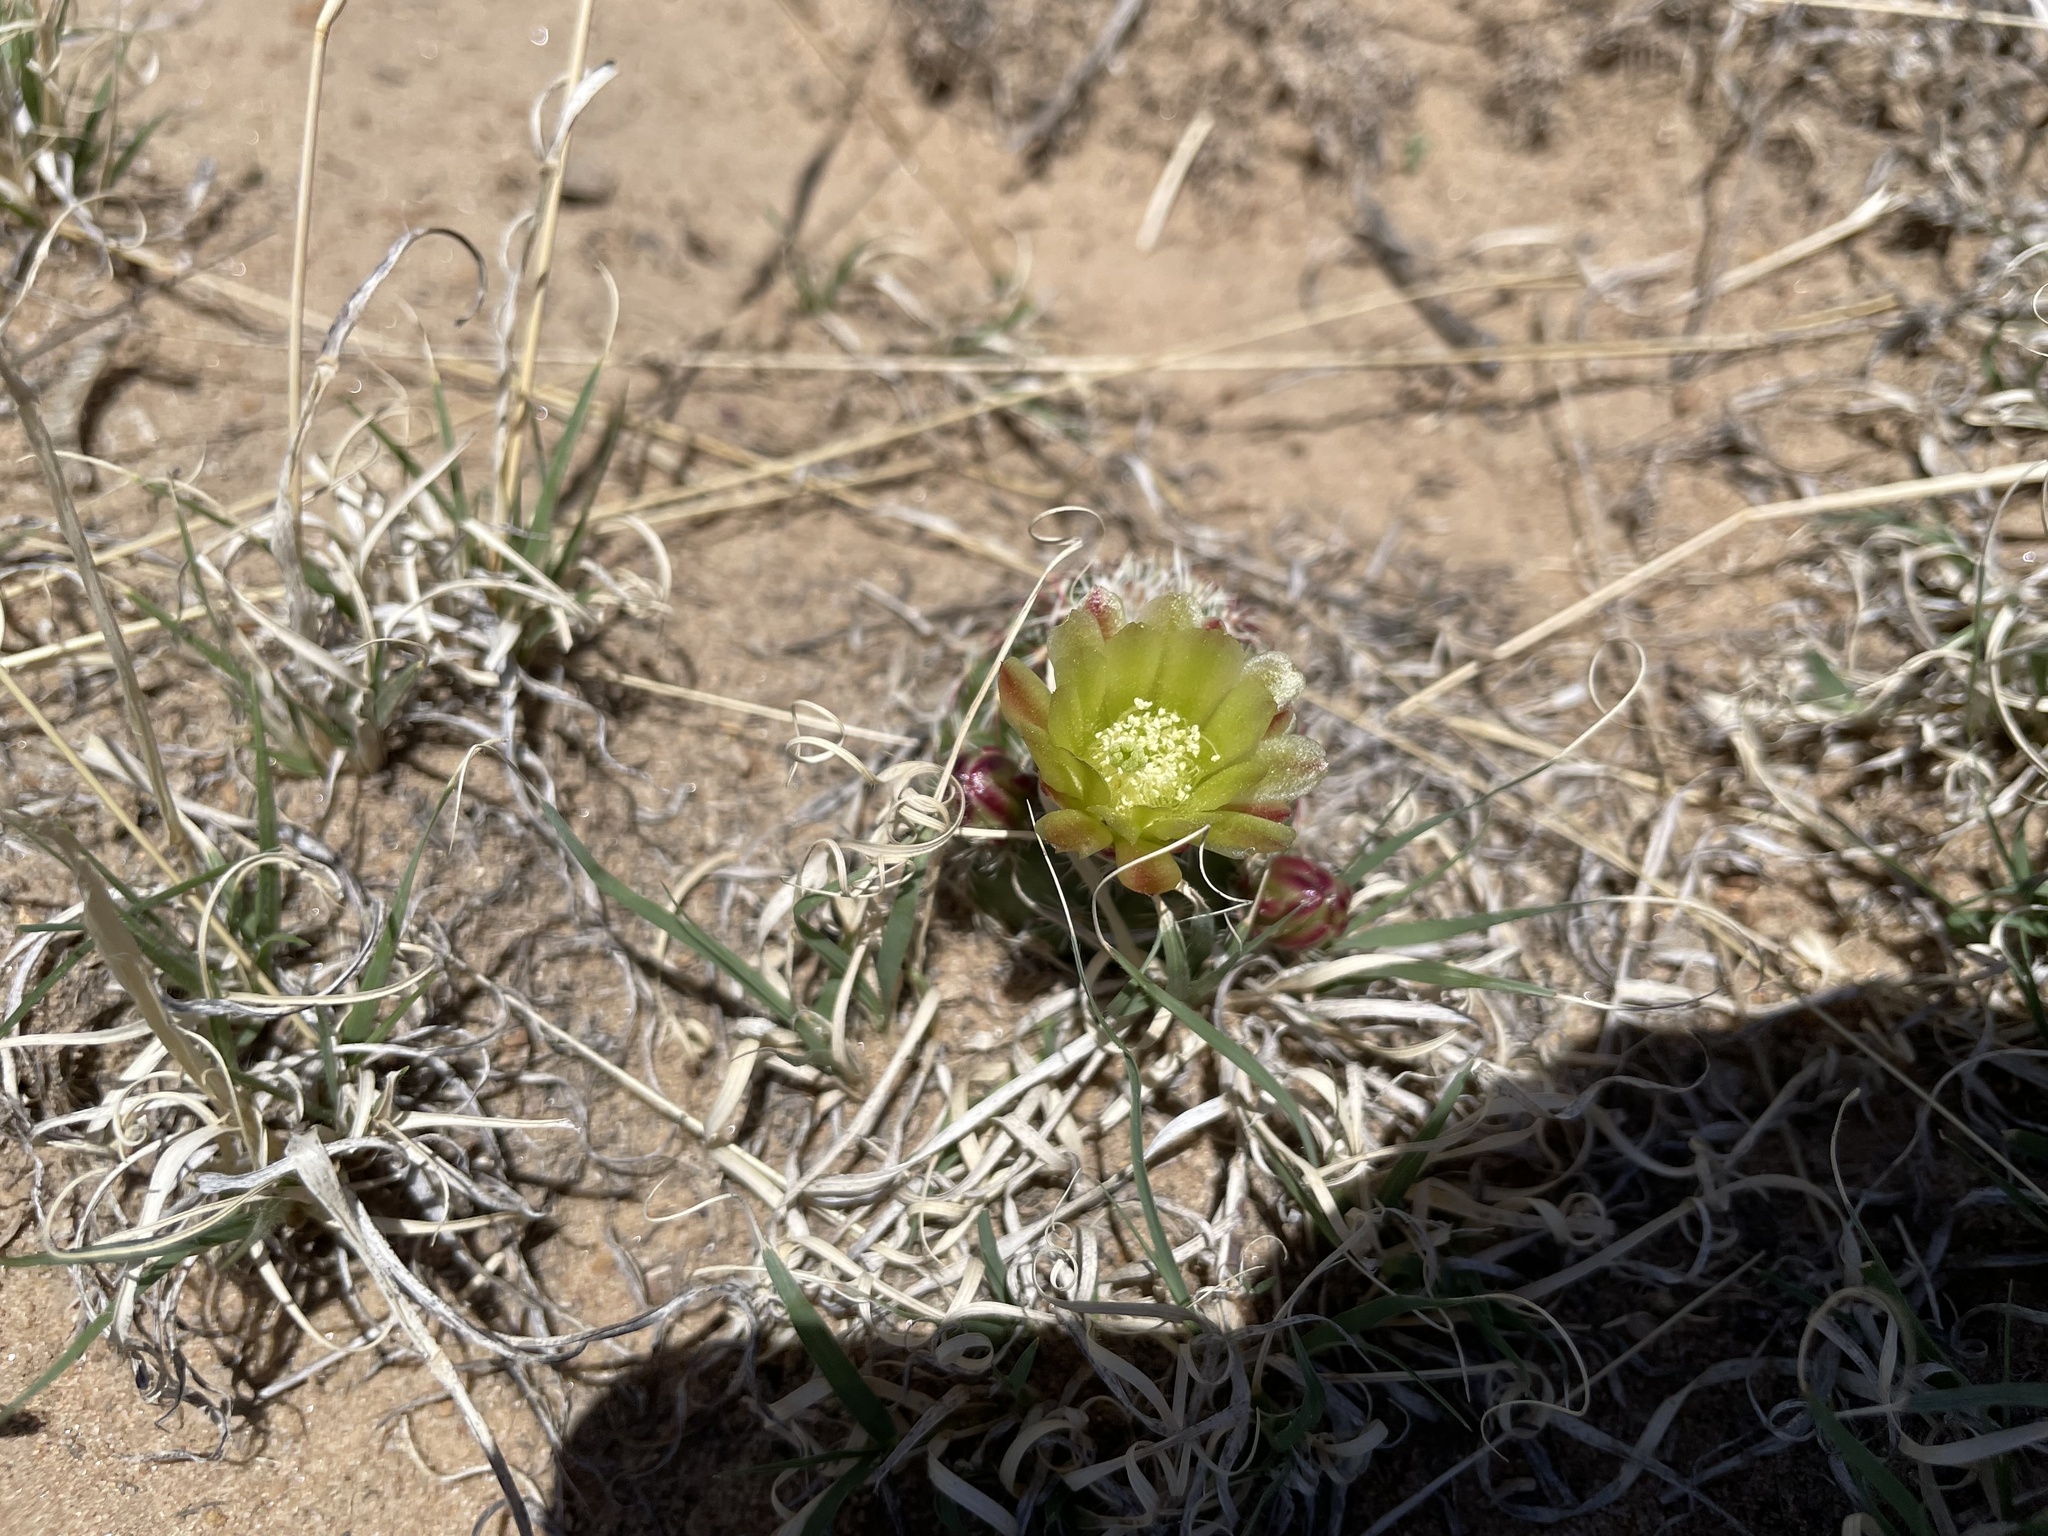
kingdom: Plantae
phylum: Tracheophyta
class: Magnoliopsida
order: Caryophyllales
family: Cactaceae
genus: Echinocereus
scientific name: Echinocereus viridiflorus
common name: Nylon hedgehog cactus
